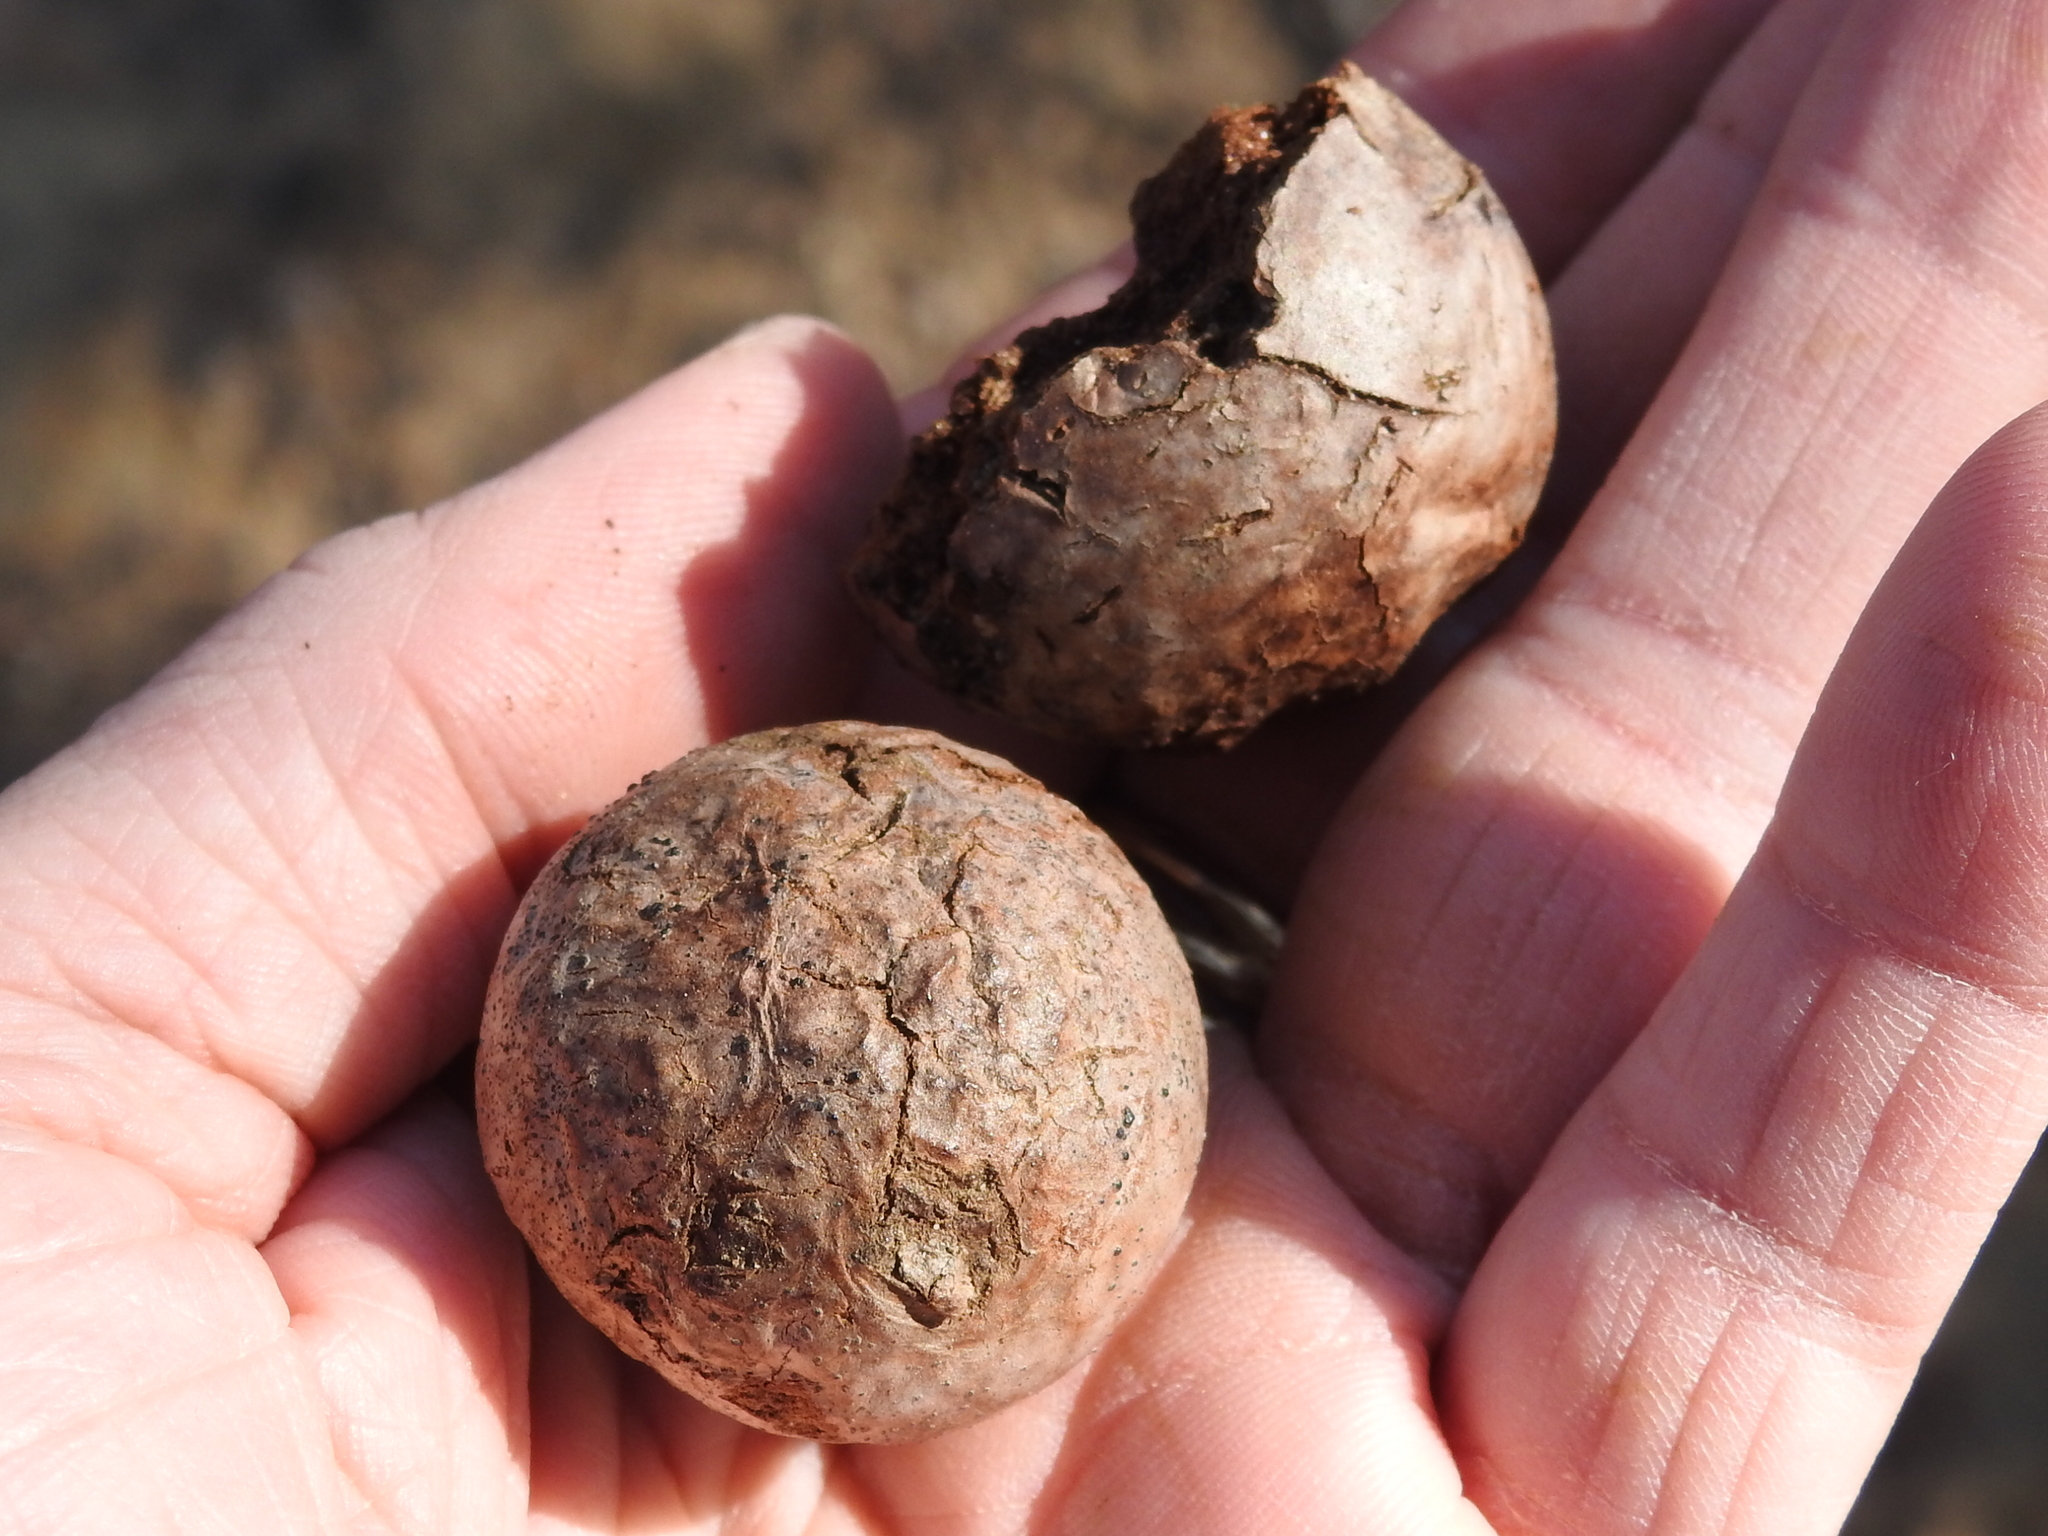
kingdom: Animalia
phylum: Arthropoda
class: Insecta
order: Hymenoptera
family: Cynipidae
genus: Amphibolips
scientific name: Amphibolips gainesi
